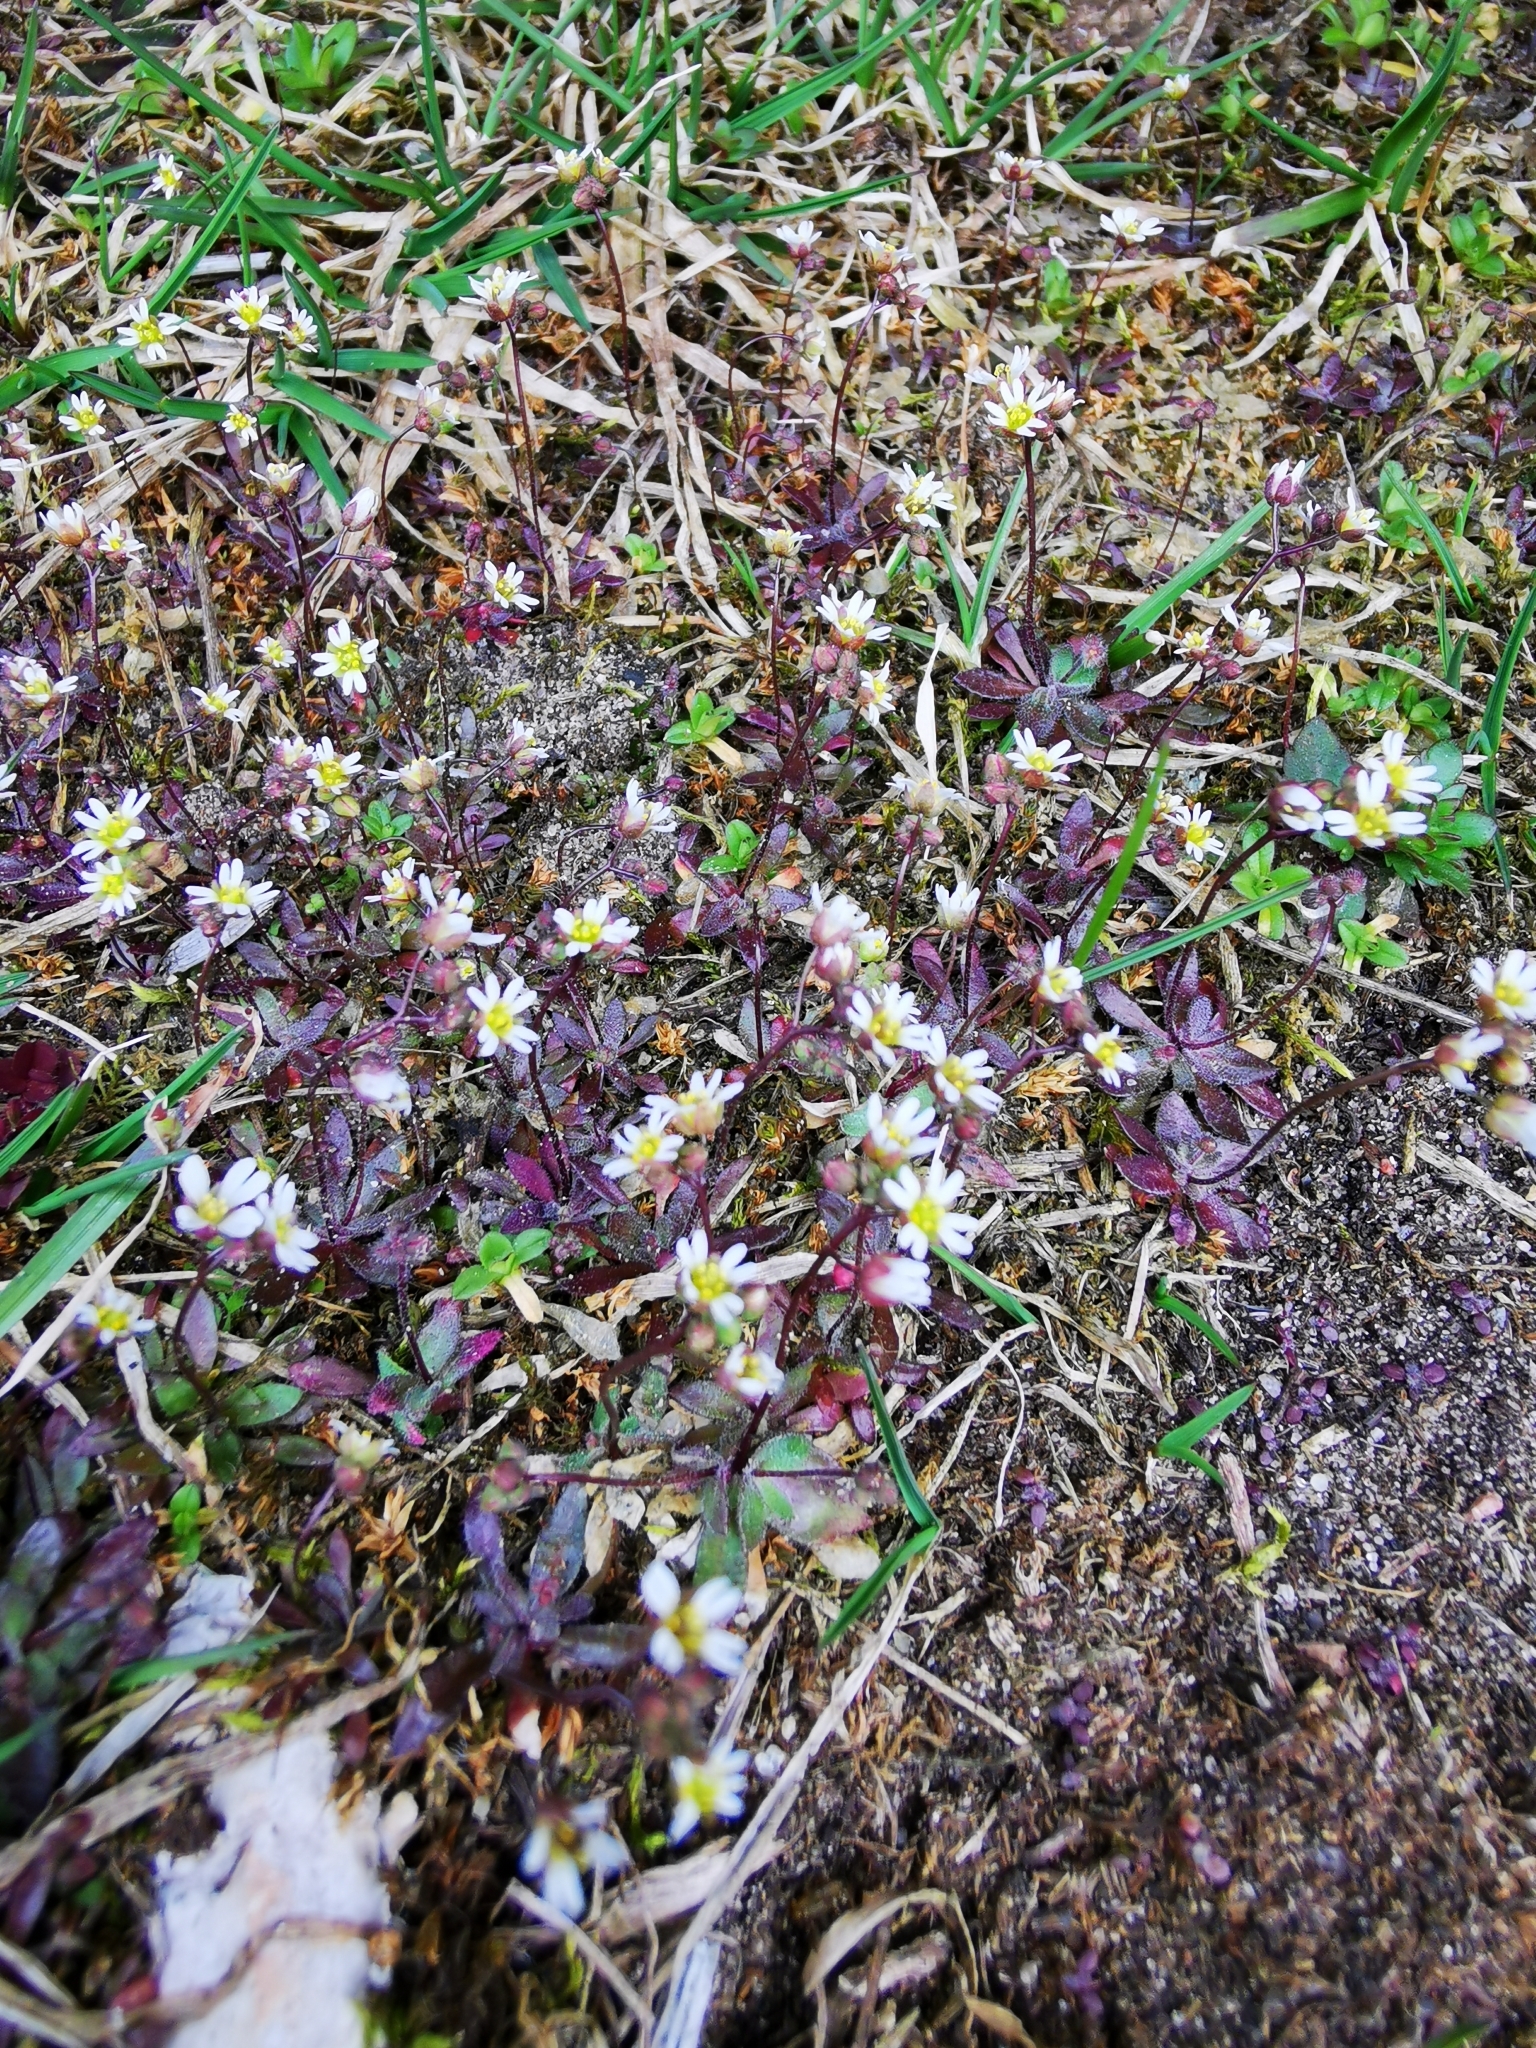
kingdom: Plantae
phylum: Tracheophyta
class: Magnoliopsida
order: Brassicales
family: Brassicaceae
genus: Draba
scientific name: Draba verna
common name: Spring draba
